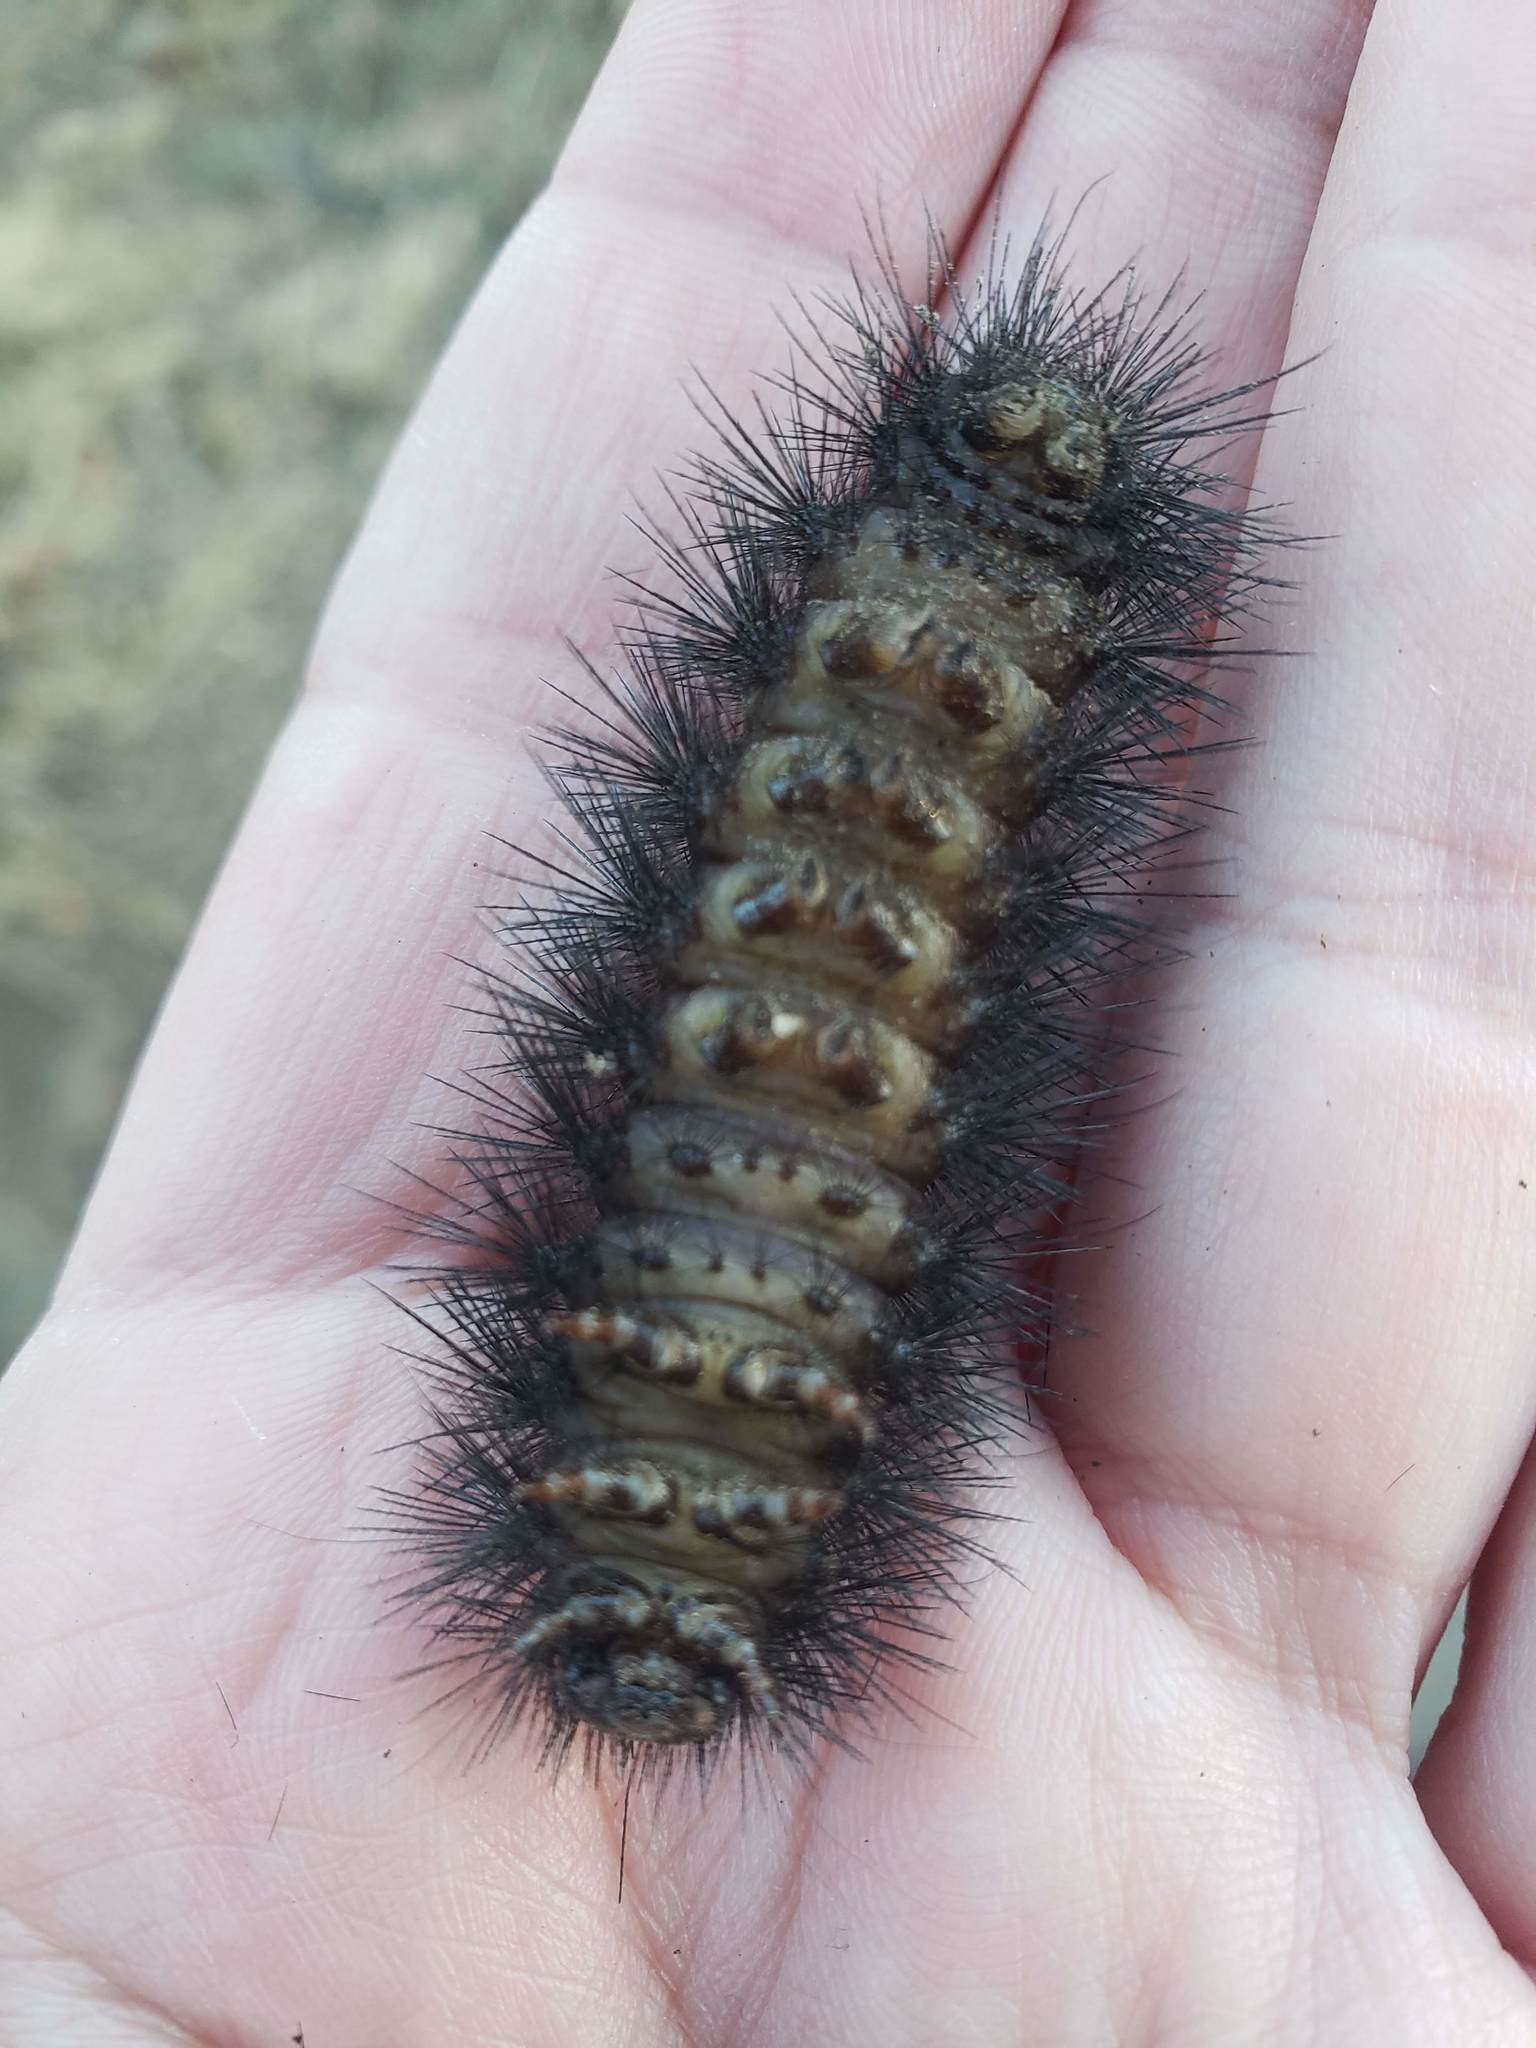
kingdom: Animalia
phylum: Arthropoda
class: Insecta
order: Lepidoptera
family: Erebidae
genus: Hypercompe
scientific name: Hypercompe scribonia
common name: Giant leopard moth
